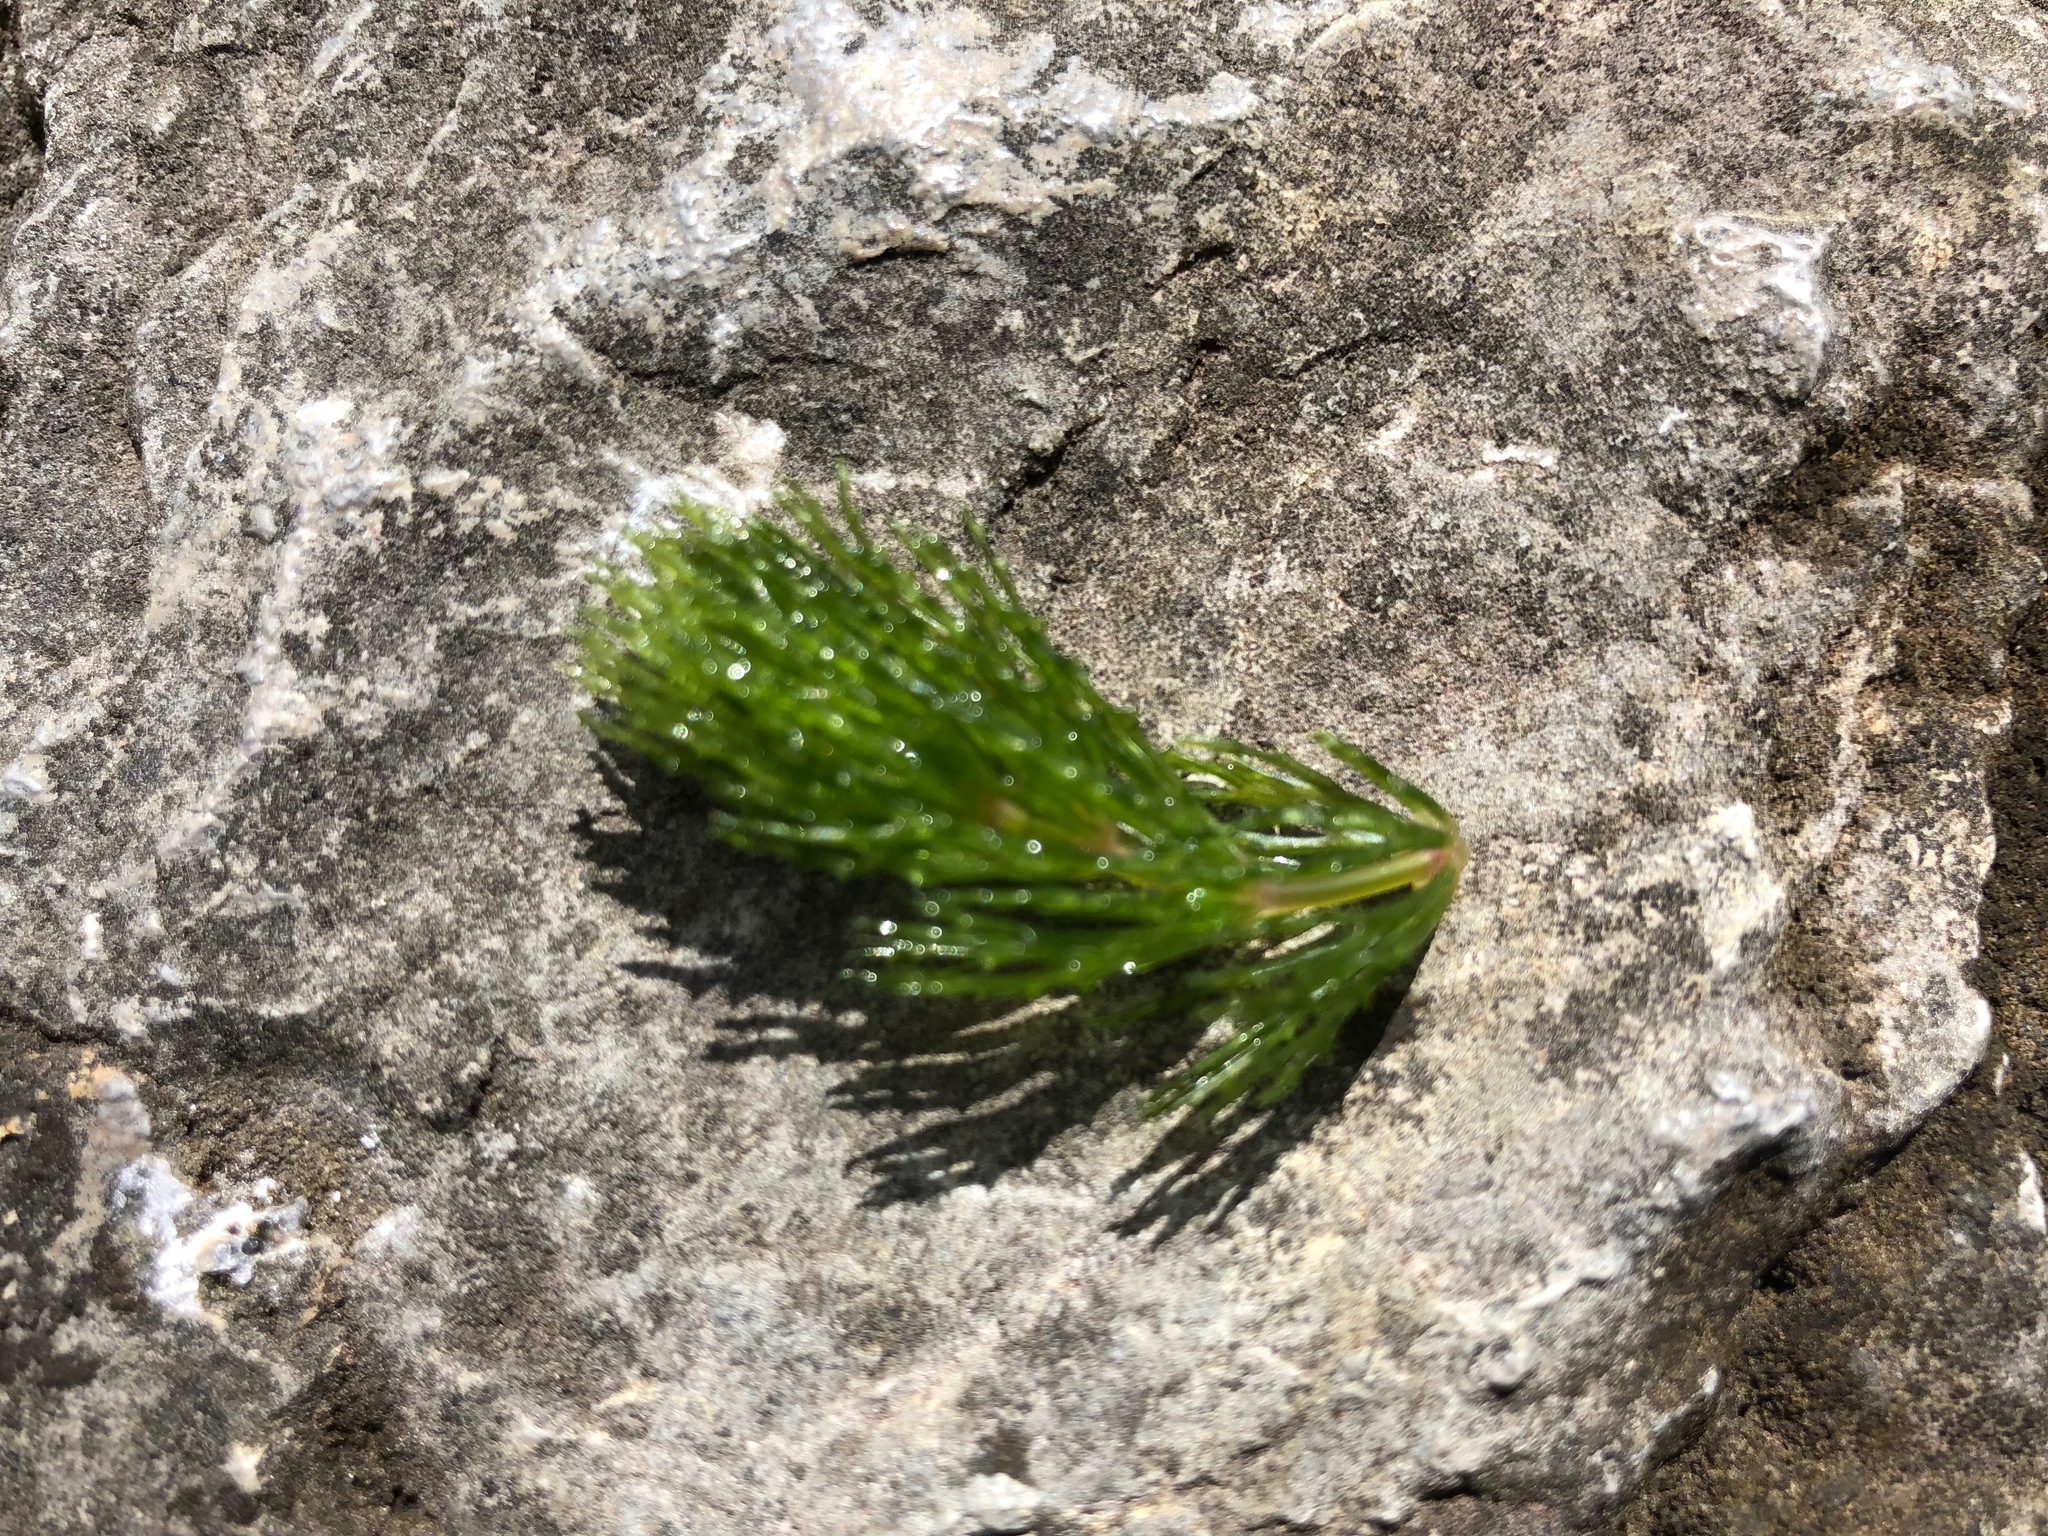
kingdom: Plantae
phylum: Tracheophyta
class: Magnoliopsida
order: Ceratophyllales
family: Ceratophyllaceae
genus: Ceratophyllum
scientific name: Ceratophyllum demersum
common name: Rigid hornwort
